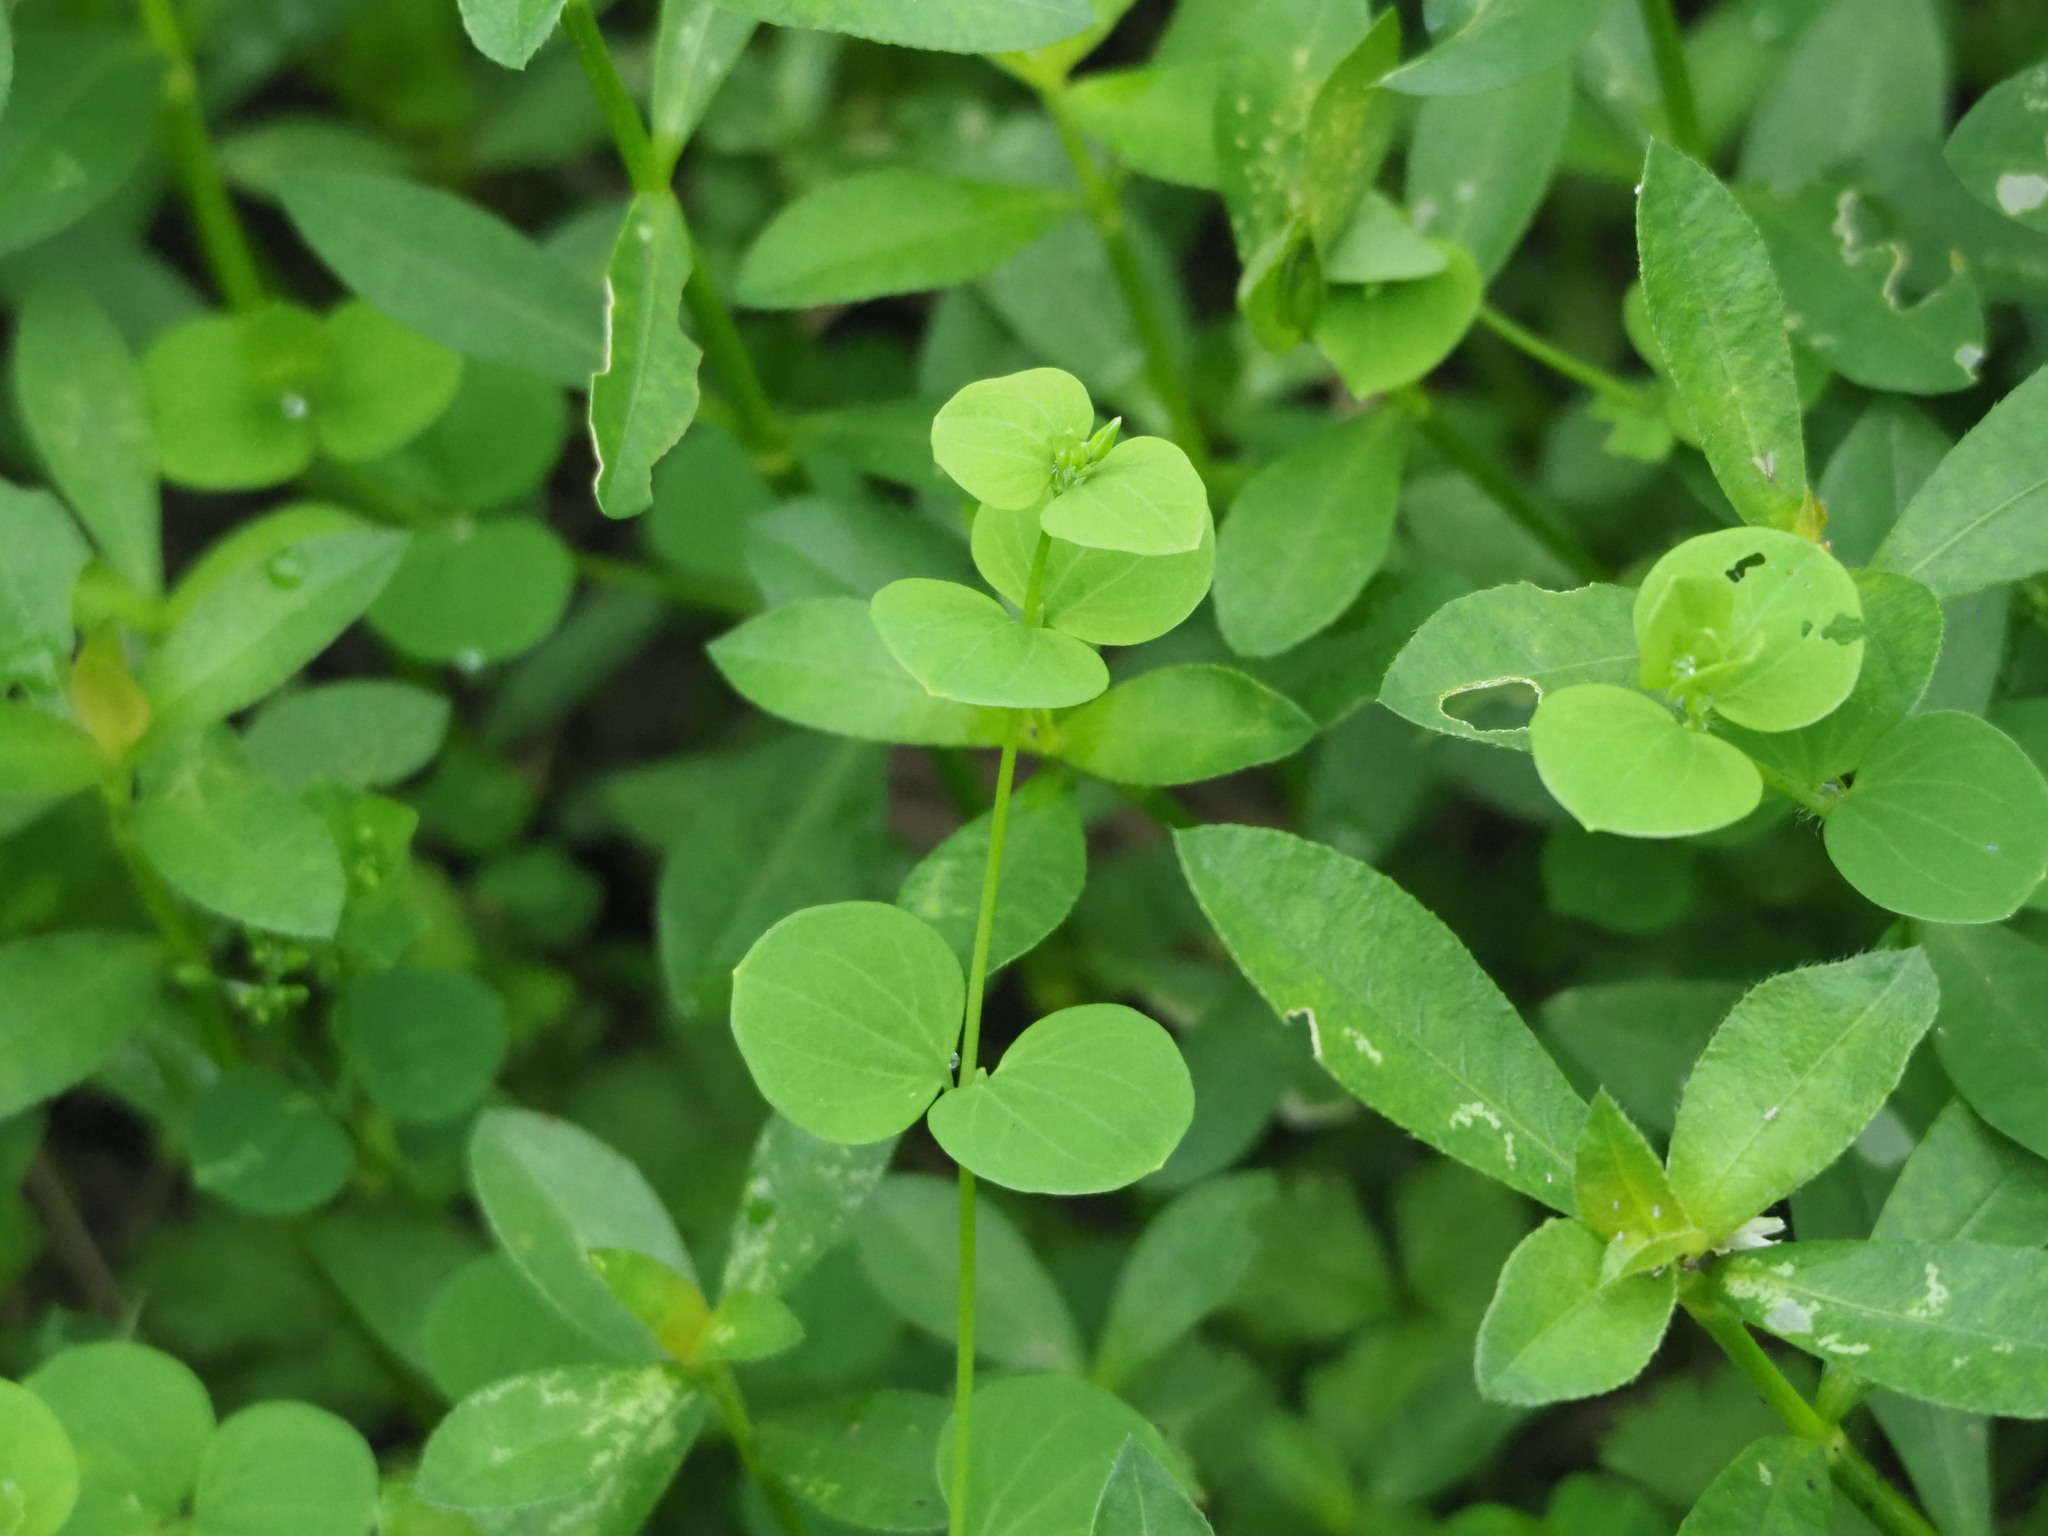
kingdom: Plantae
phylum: Tracheophyta
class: Magnoliopsida
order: Caryophyllales
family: Caryophyllaceae
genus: Drymaria
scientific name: Drymaria cordata
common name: Whitesnow
